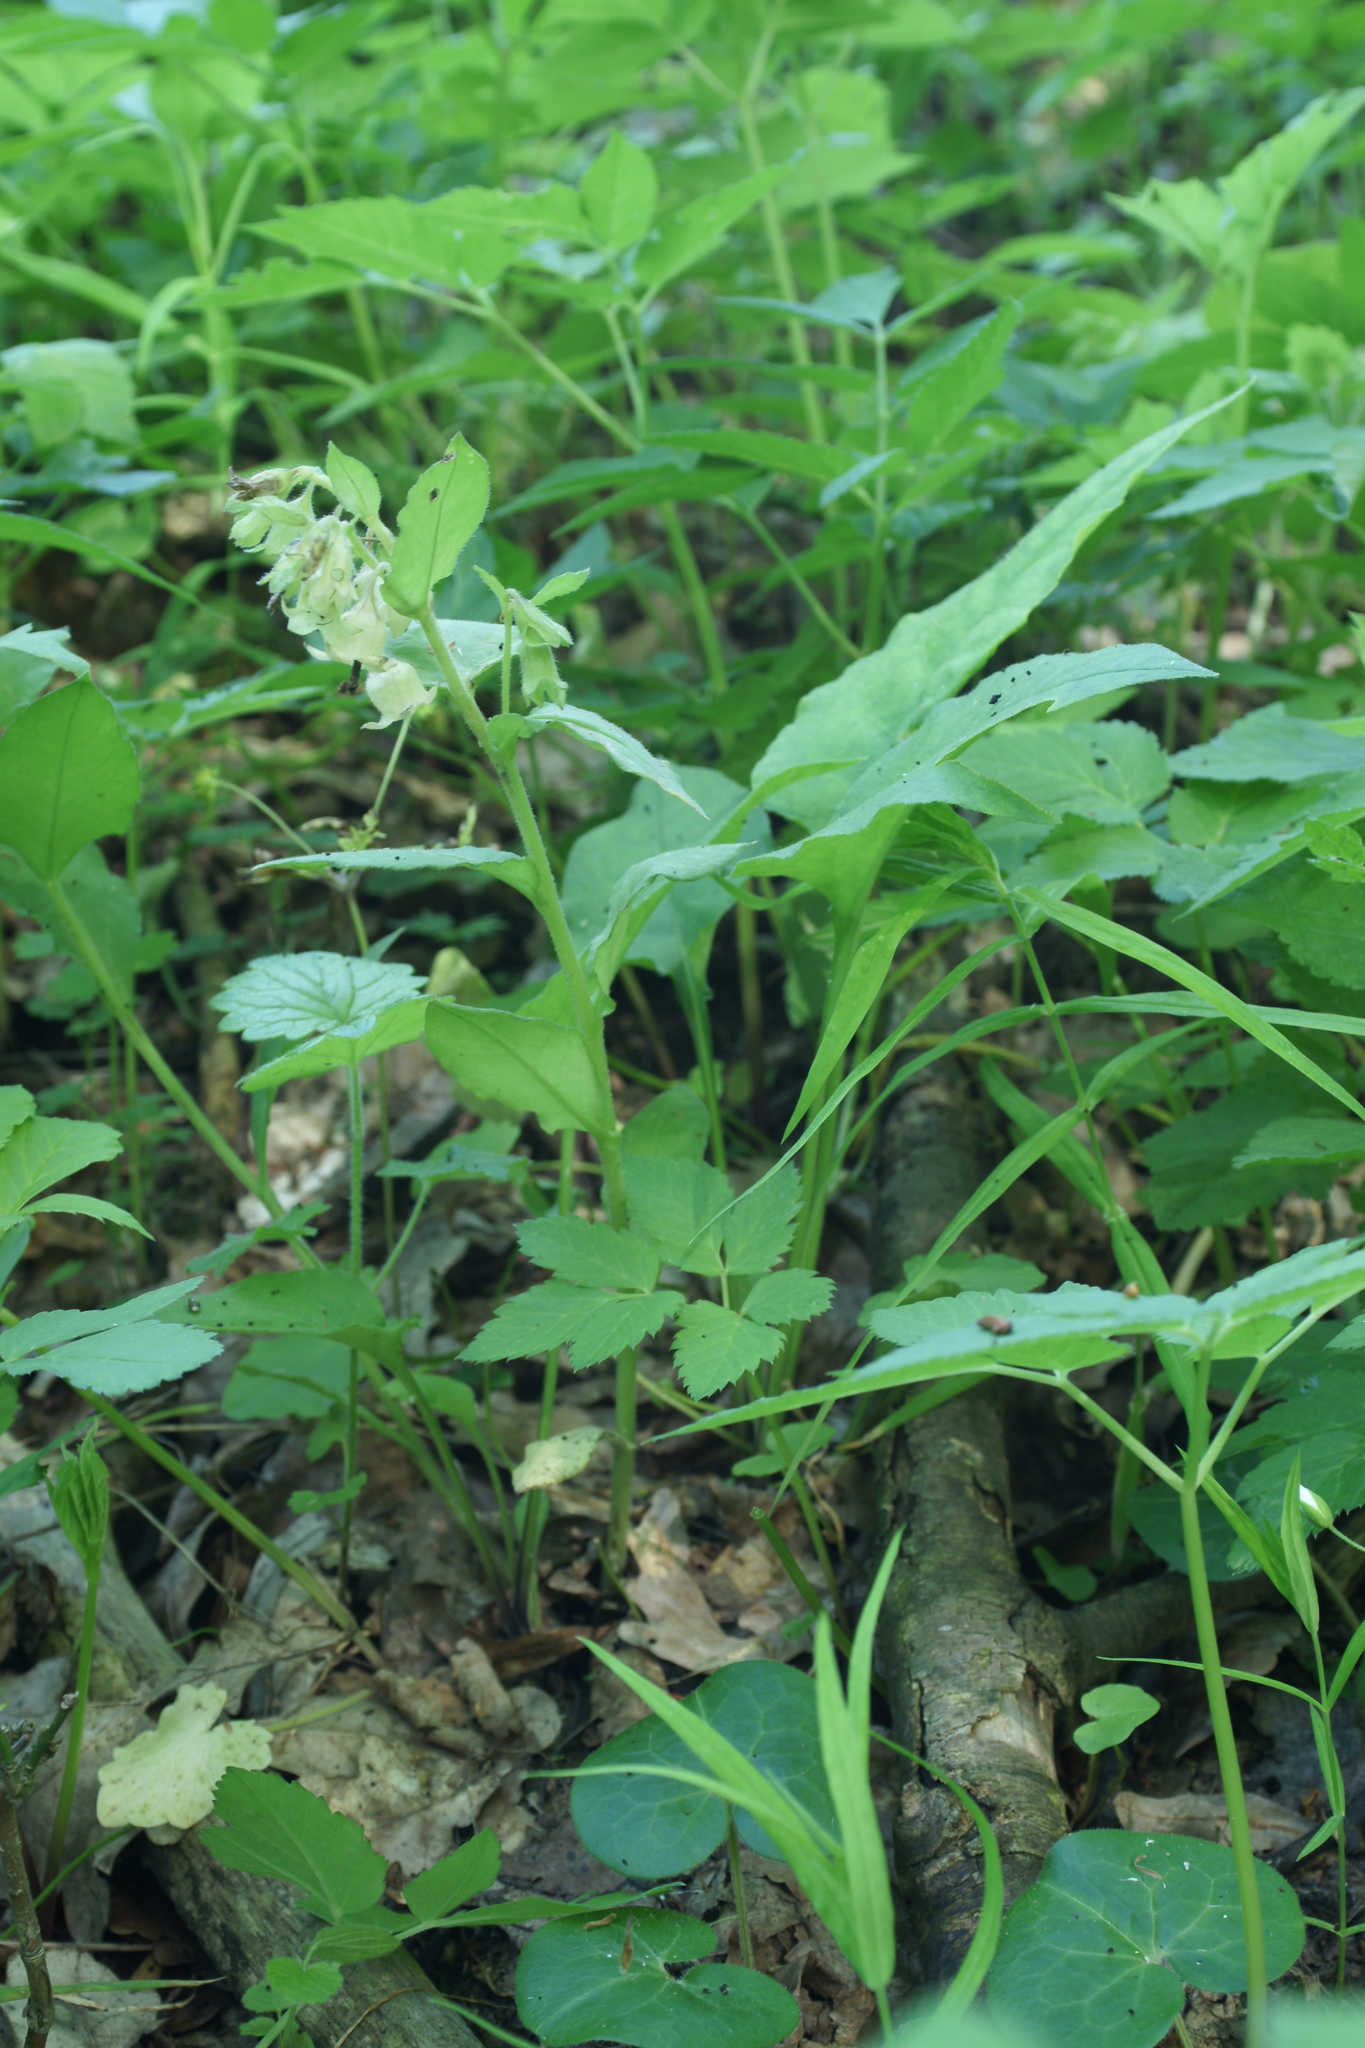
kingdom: Plantae
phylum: Tracheophyta
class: Magnoliopsida
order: Boraginales
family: Boraginaceae
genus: Pulmonaria
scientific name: Pulmonaria obscura
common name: Suffolk lungwort
